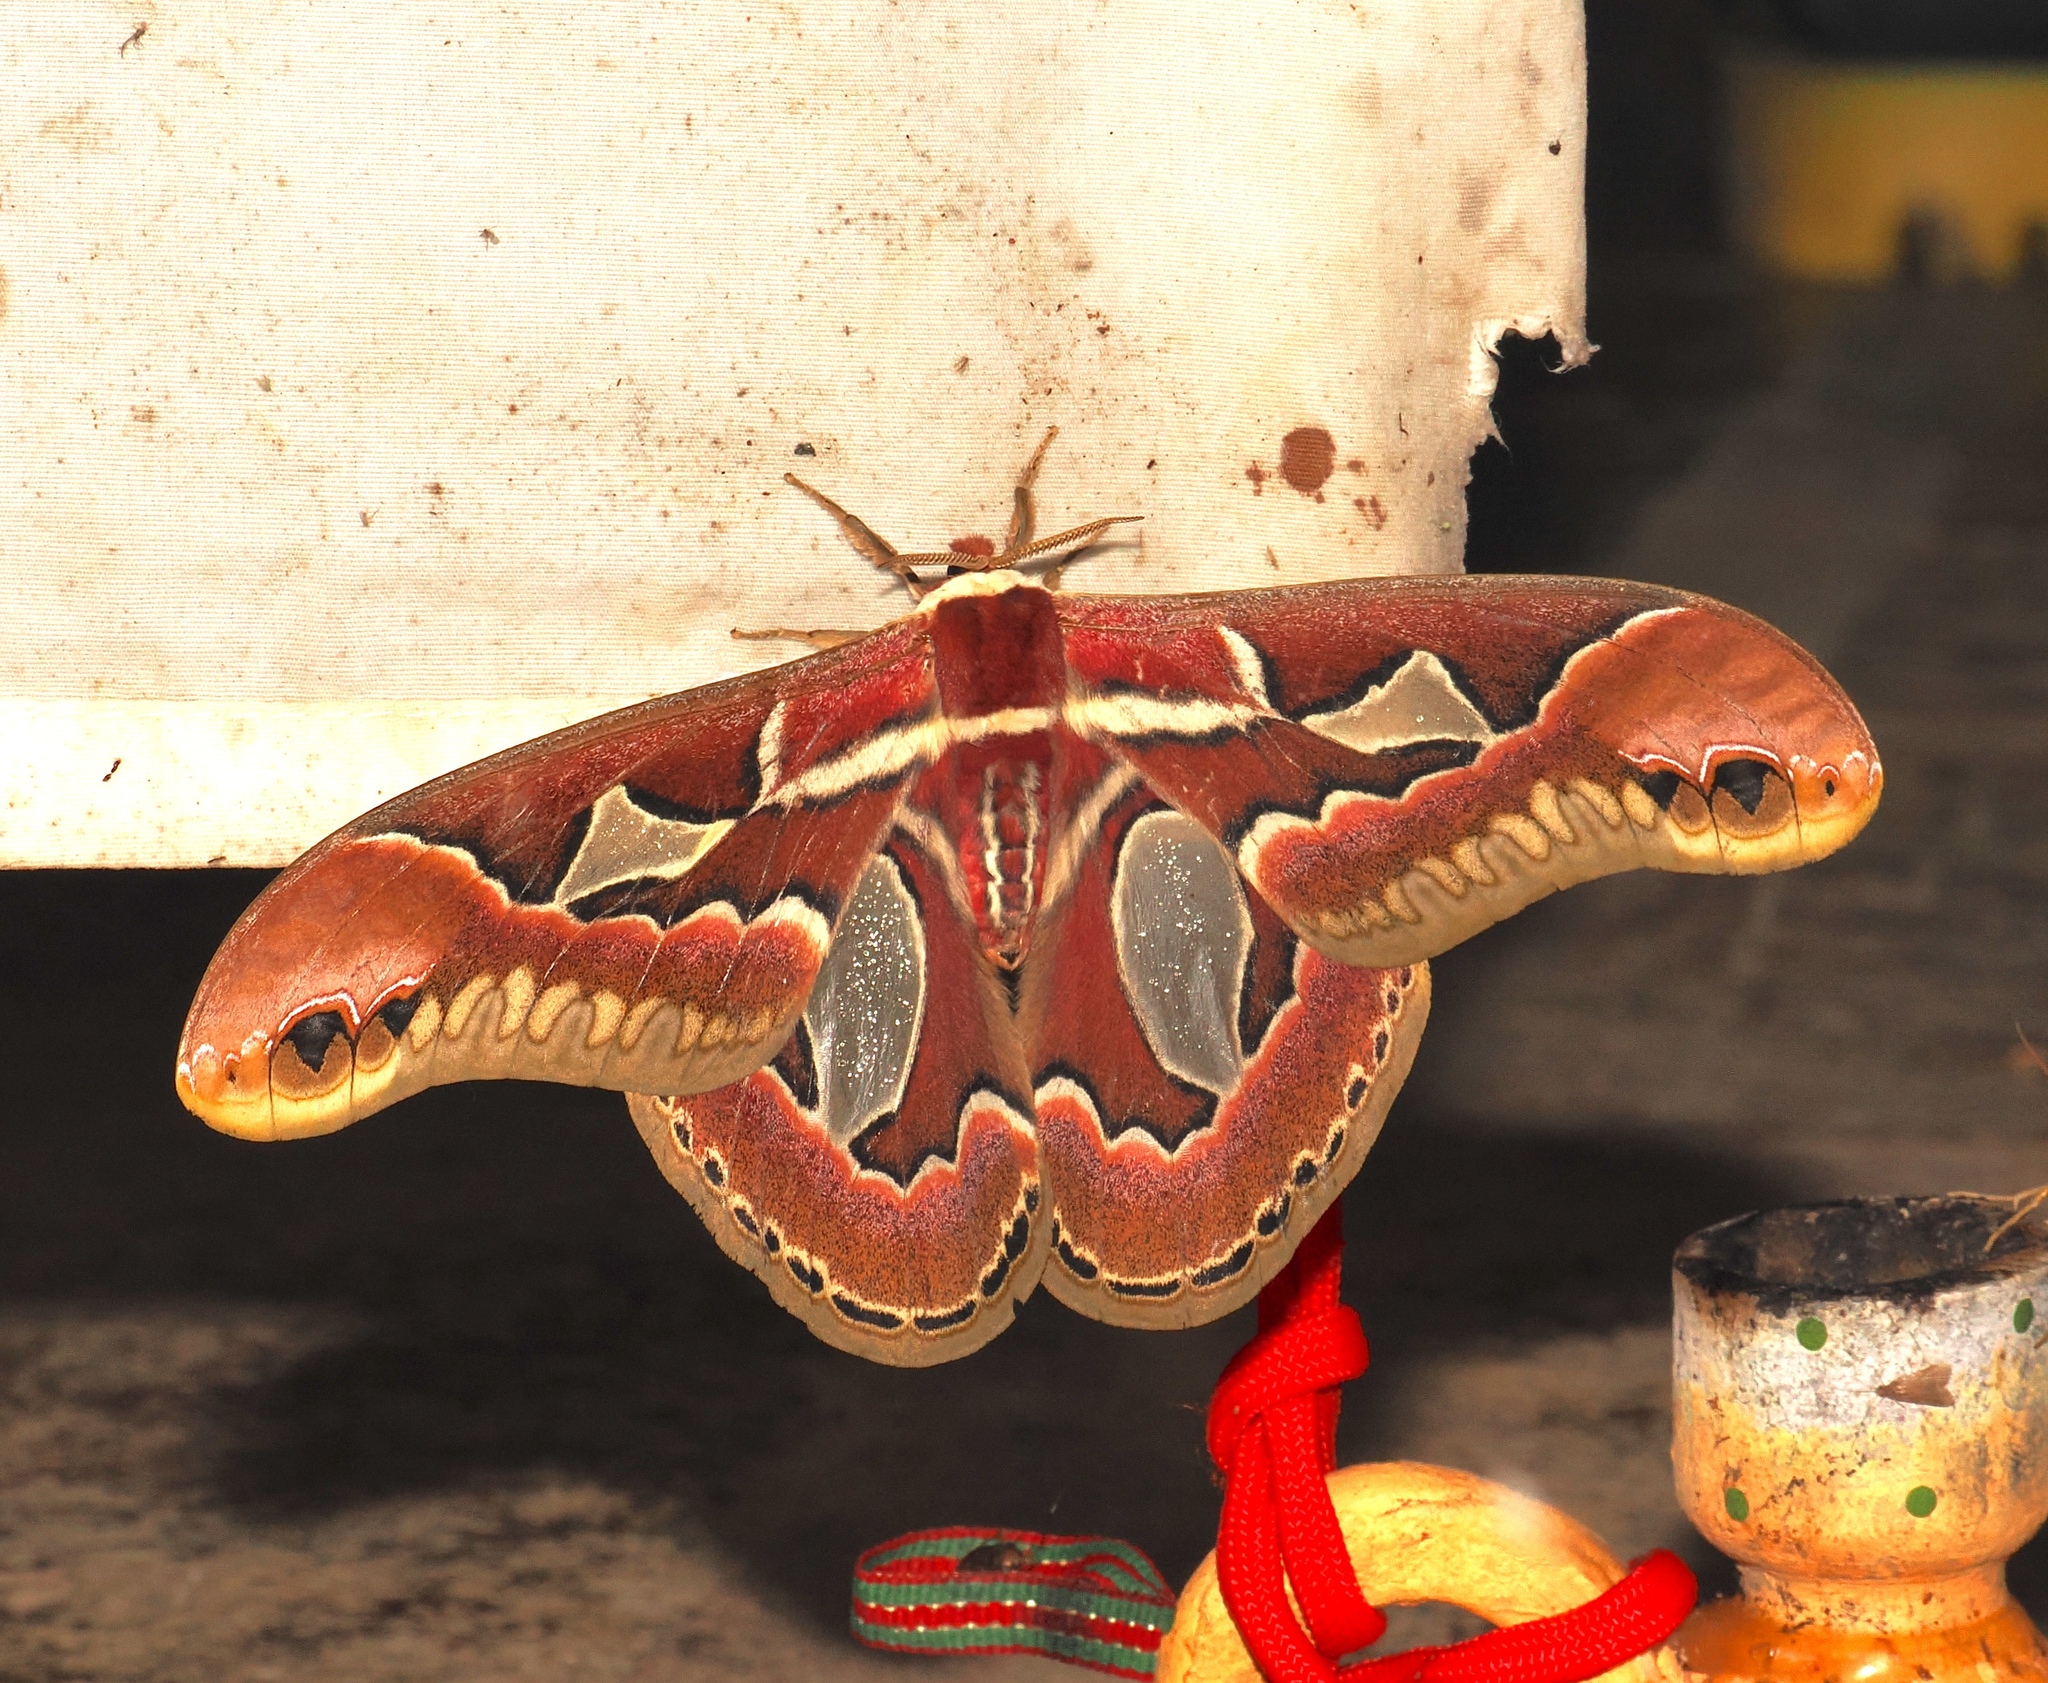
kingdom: Animalia
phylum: Arthropoda
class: Insecta
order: Lepidoptera
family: Saturniidae
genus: Rothschildia
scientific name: Rothschildia jacobaeae
